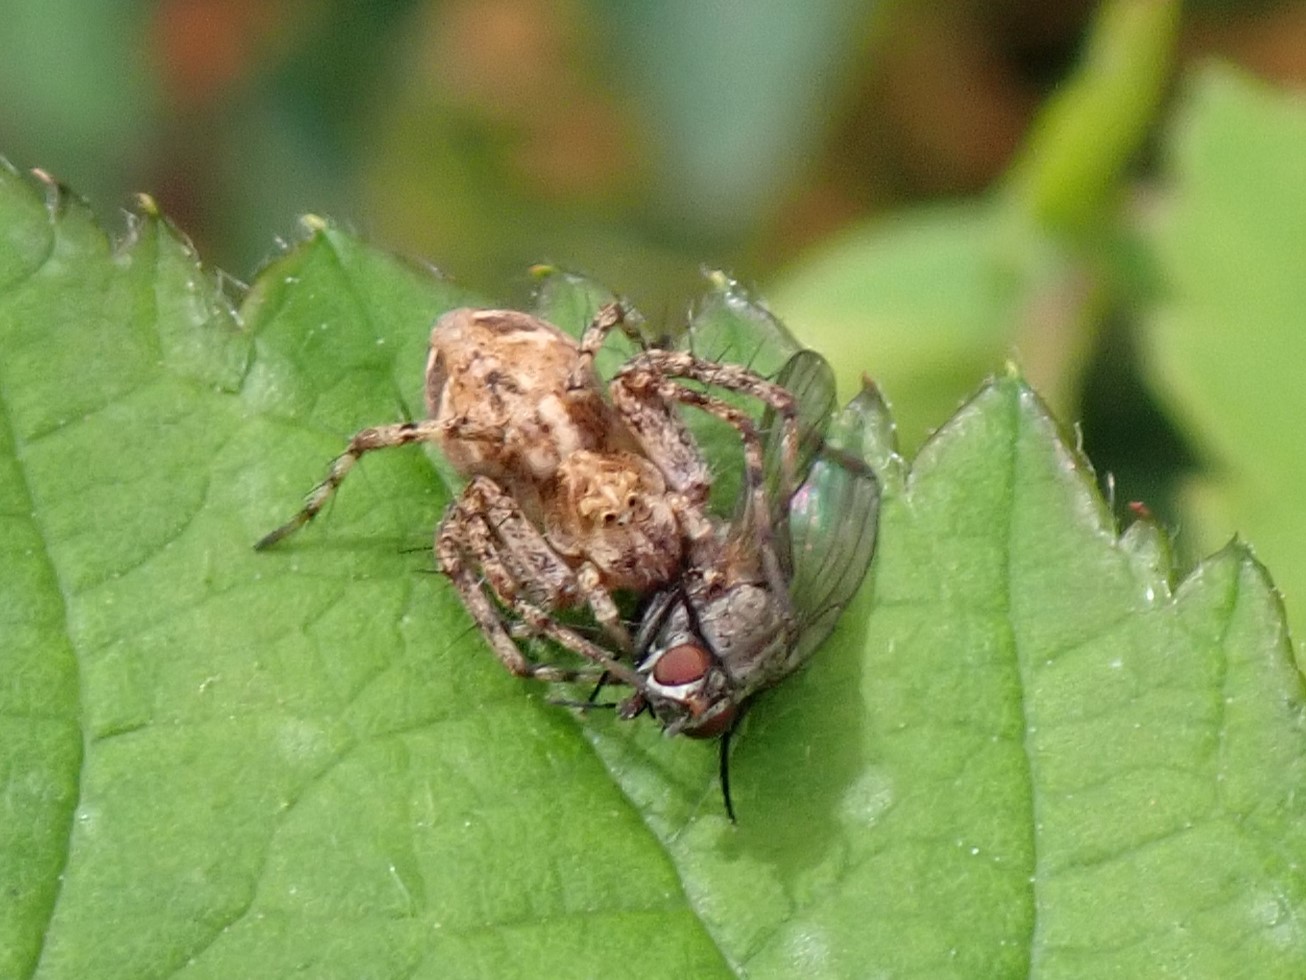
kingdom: Animalia
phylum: Arthropoda
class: Arachnida
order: Araneae
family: Oxyopidae
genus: Oxyopes
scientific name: Oxyopes scalaris
